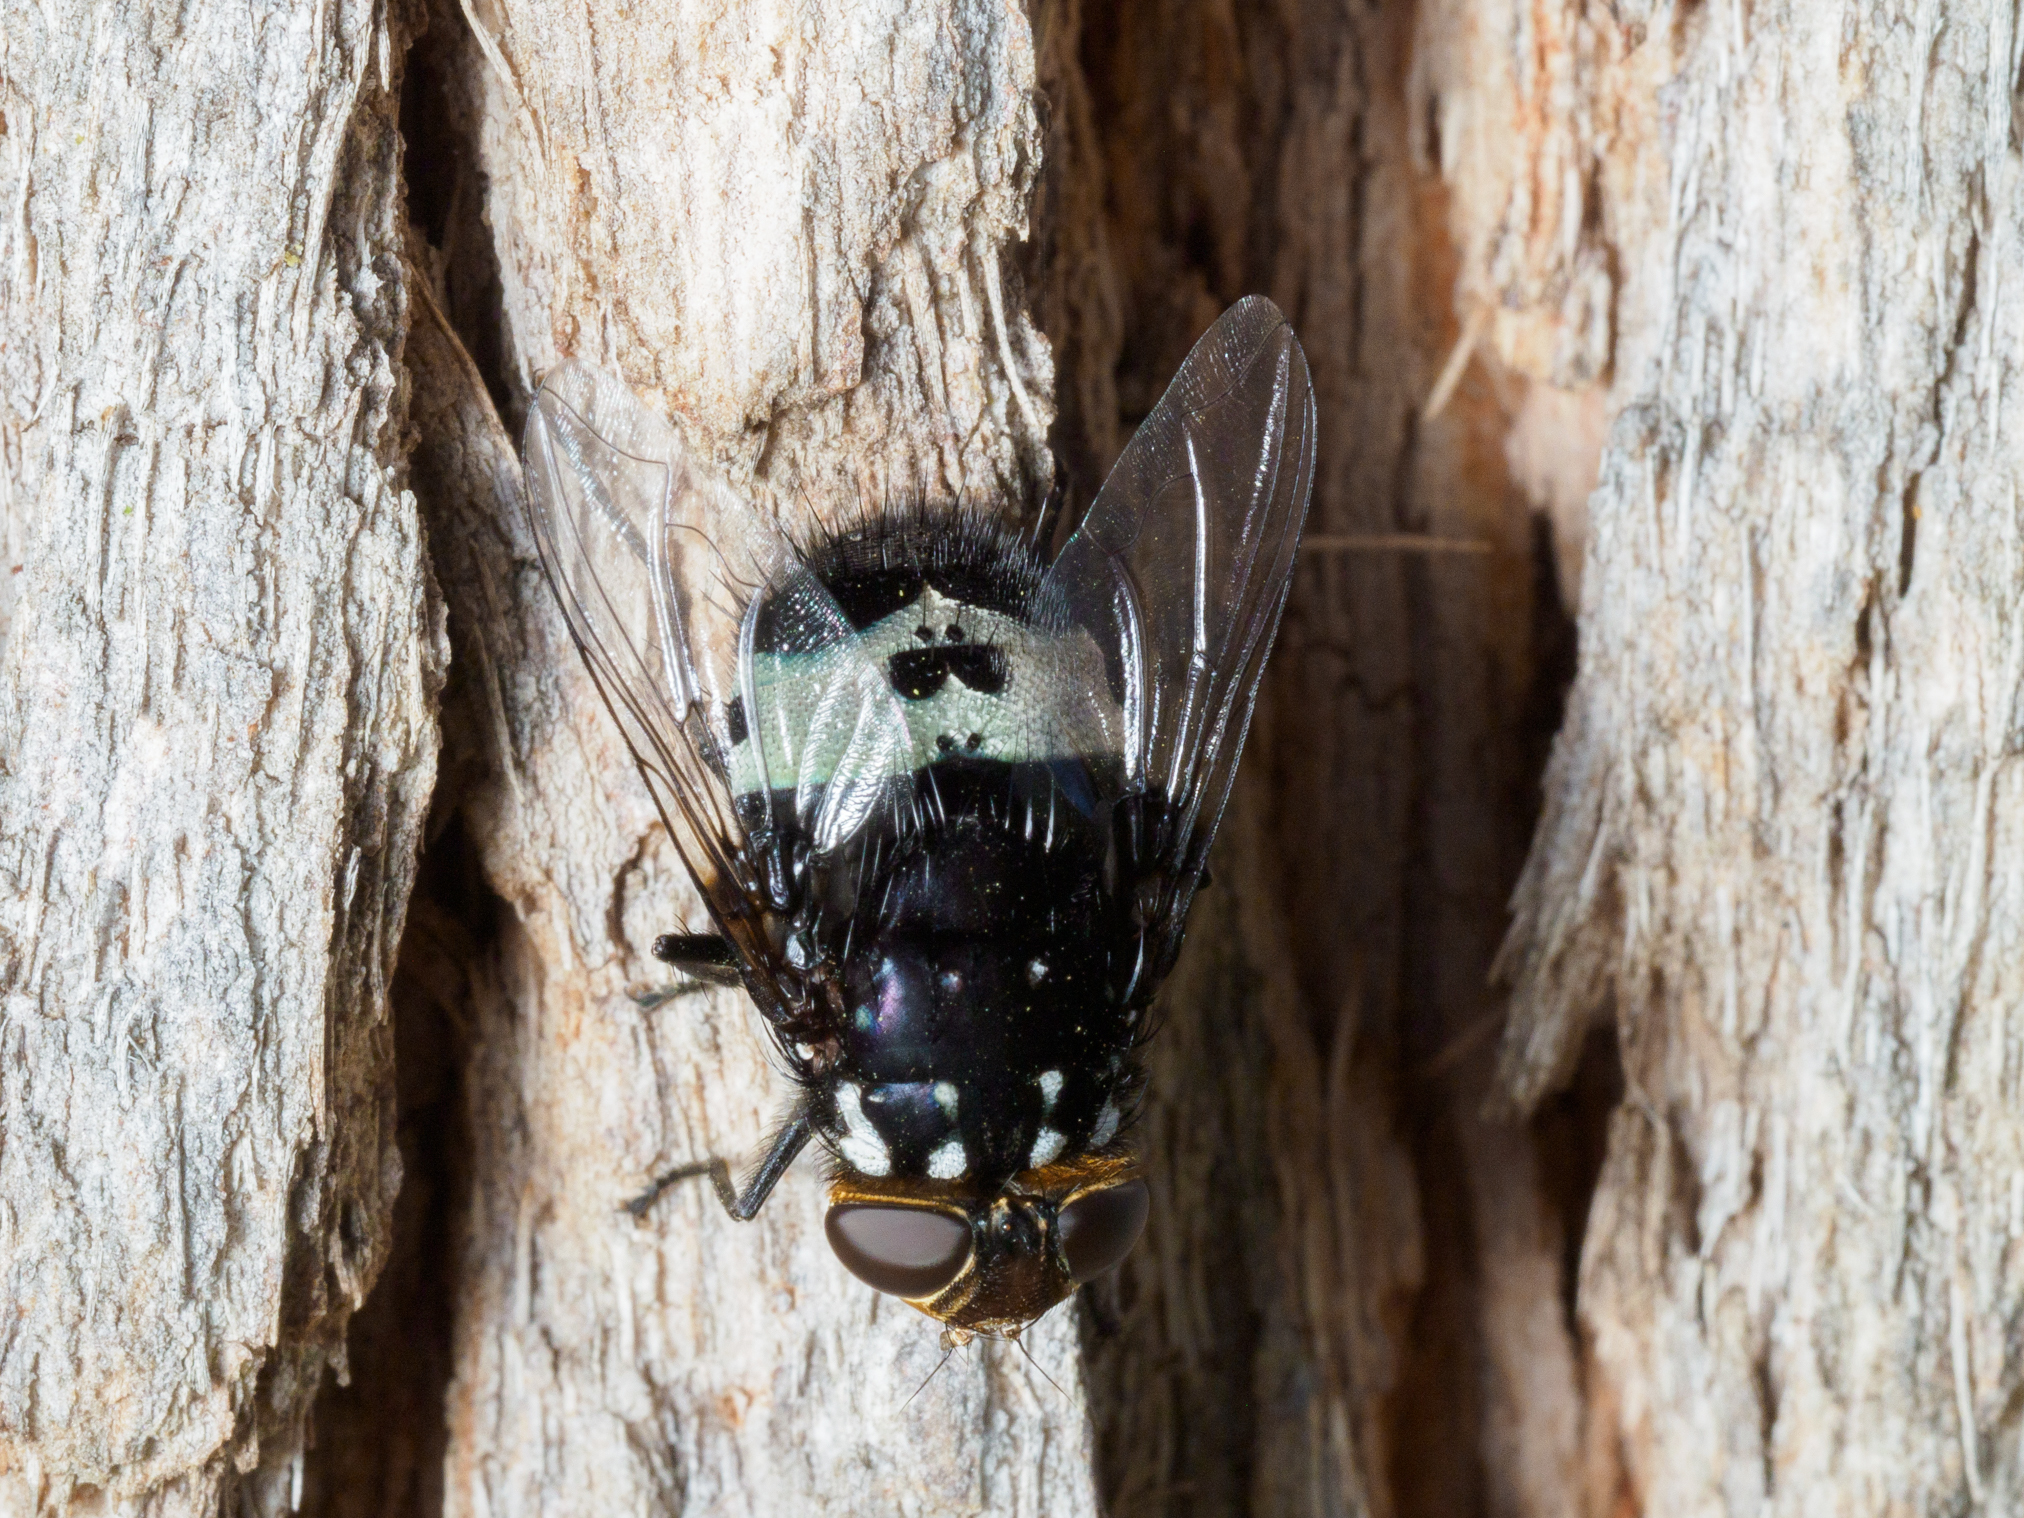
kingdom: Animalia
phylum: Arthropoda
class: Insecta
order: Diptera
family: Tachinidae
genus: Amphibolia
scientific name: Amphibolia ignorata
